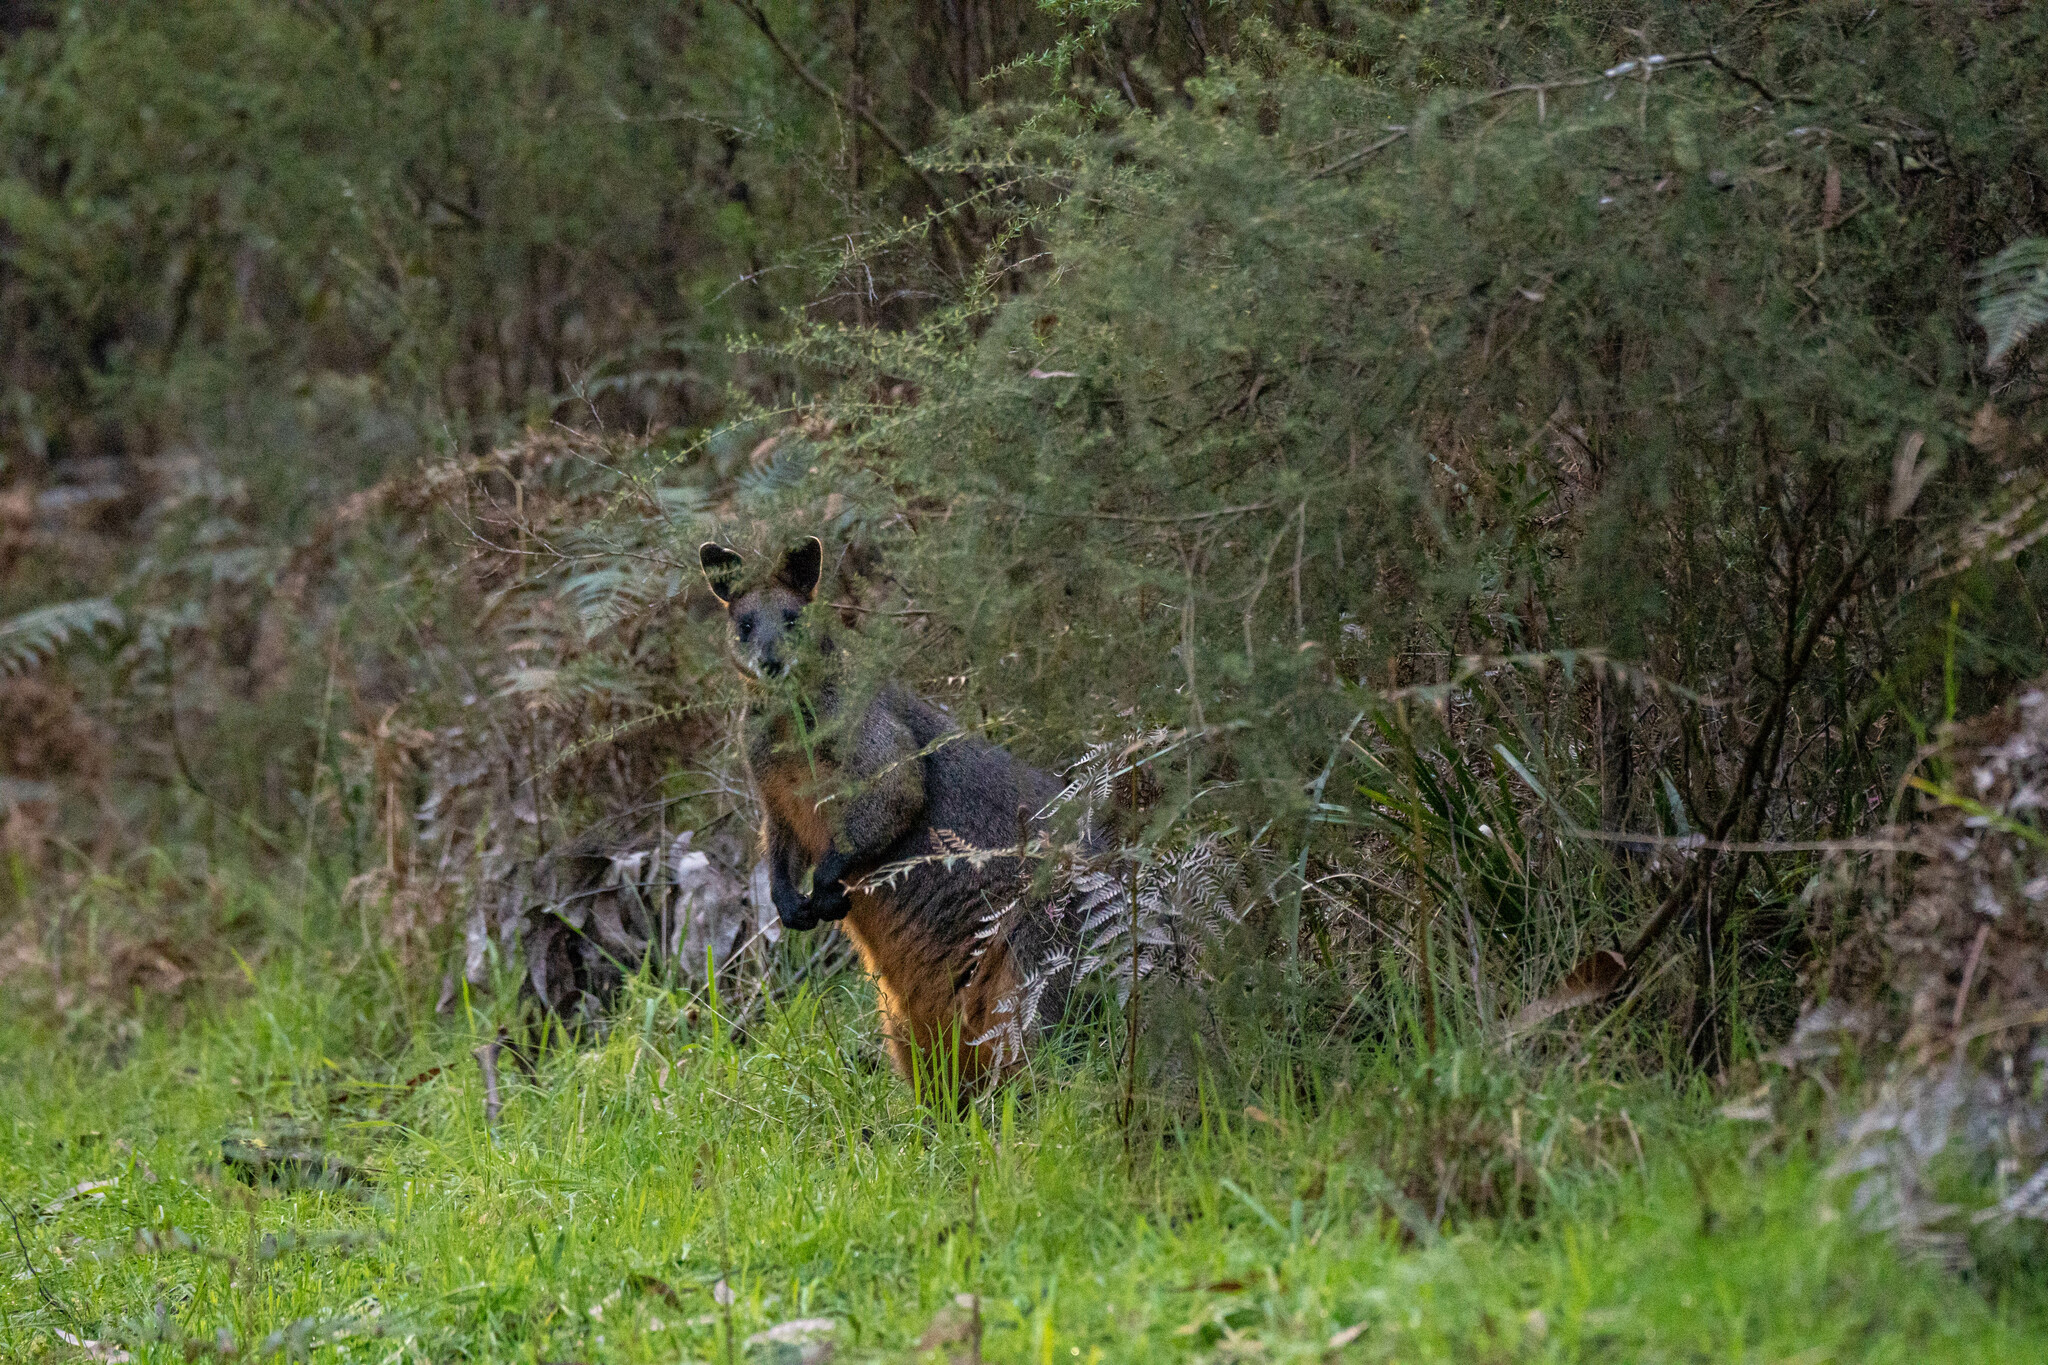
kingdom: Animalia
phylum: Chordata
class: Mammalia
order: Diprotodontia
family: Macropodidae
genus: Wallabia
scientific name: Wallabia bicolor
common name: Swamp wallaby
